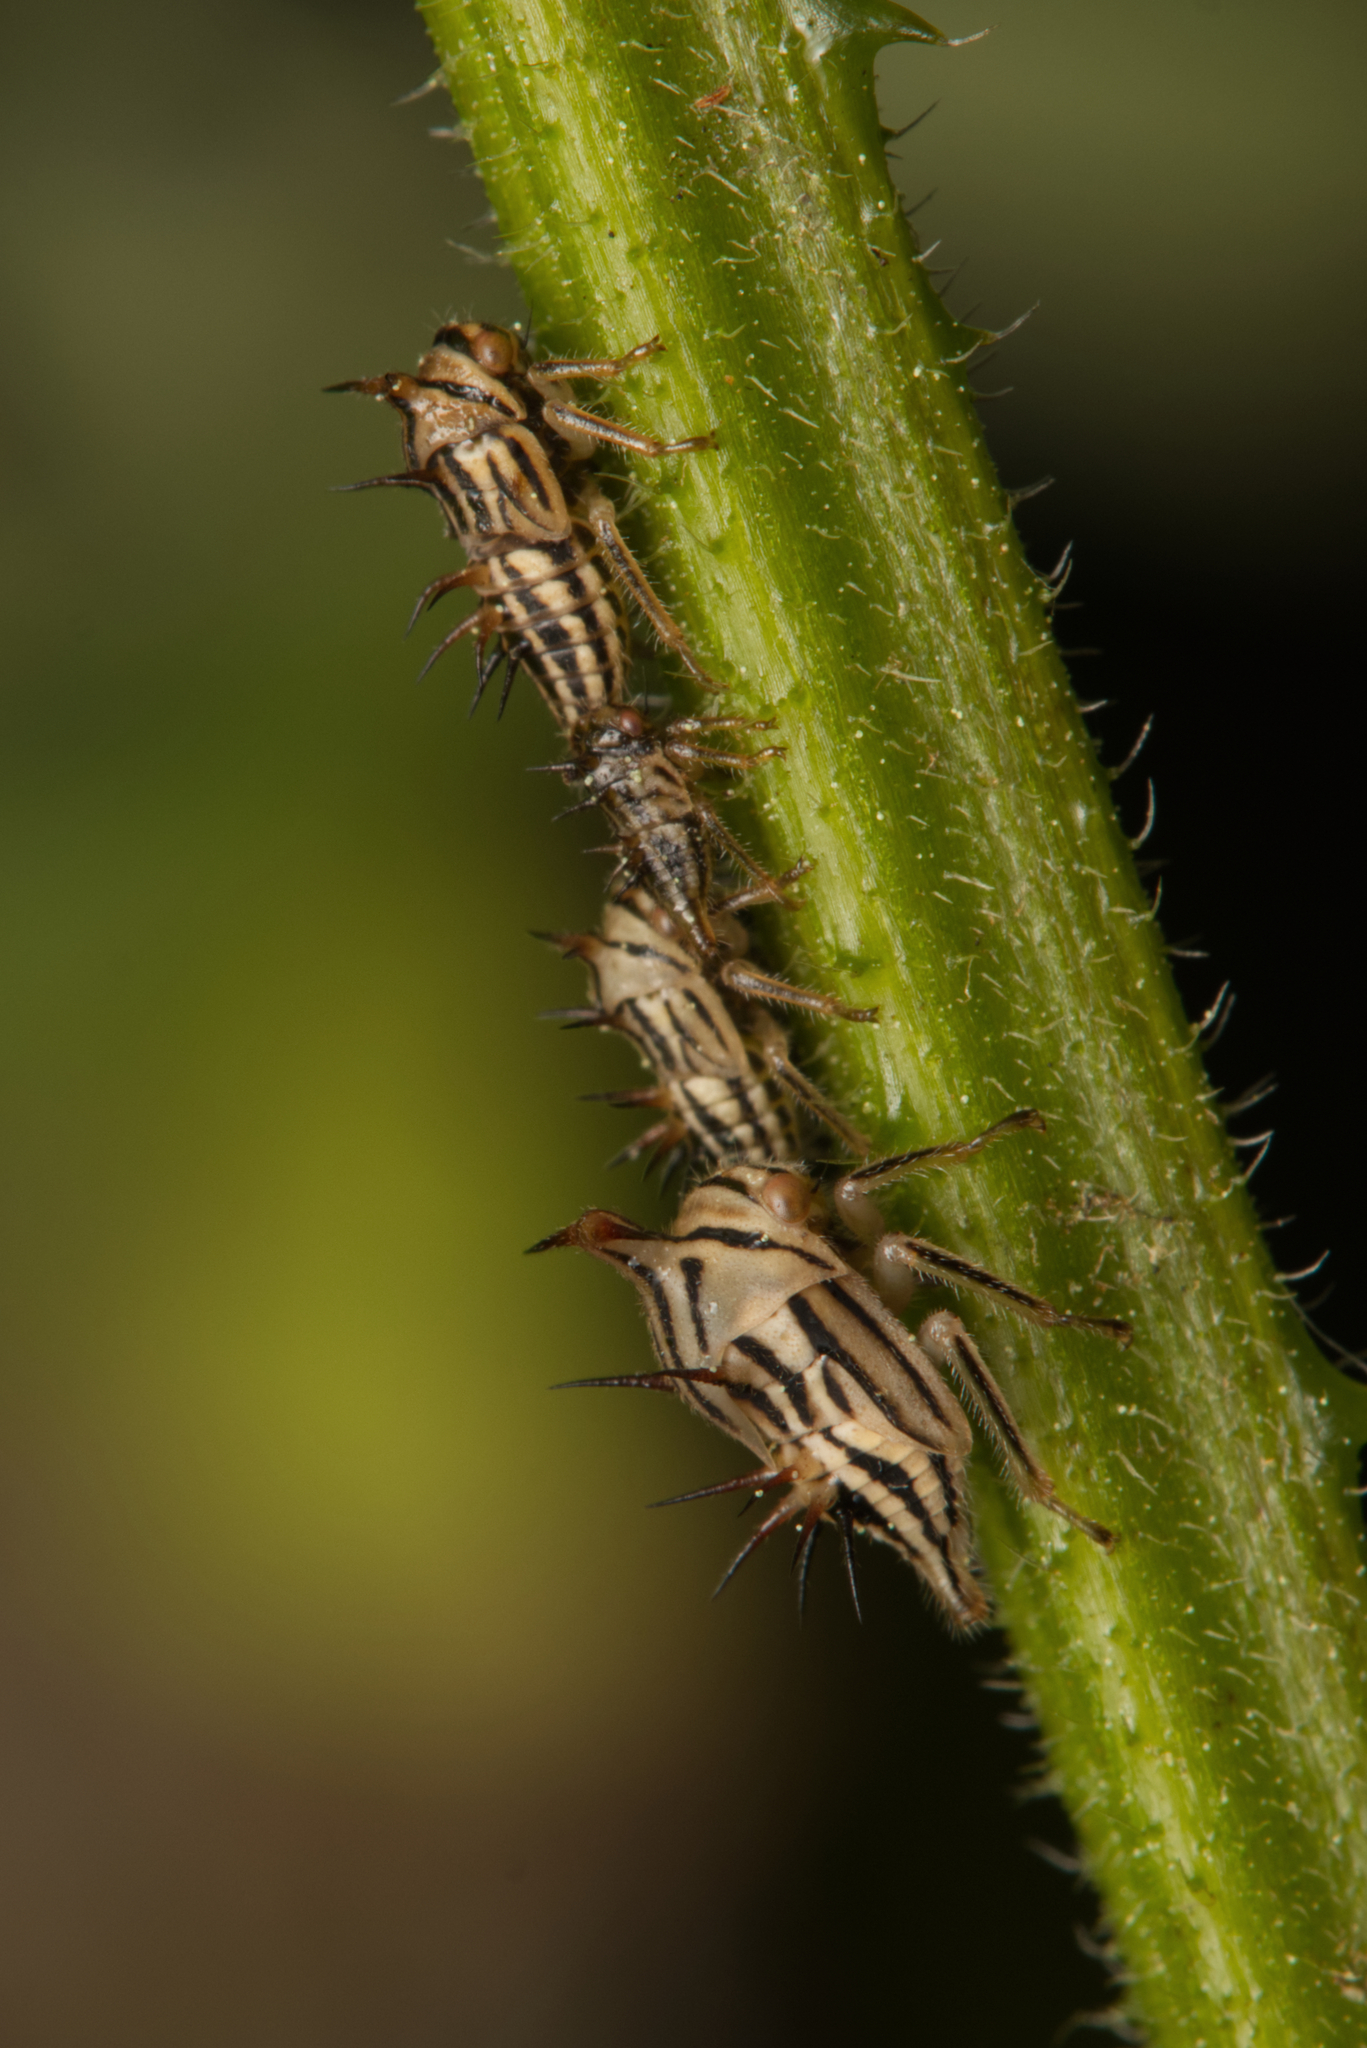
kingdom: Animalia
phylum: Arthropoda
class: Insecta
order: Hemiptera
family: Membracidae
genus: Aconophora
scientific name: Aconophora compressa
